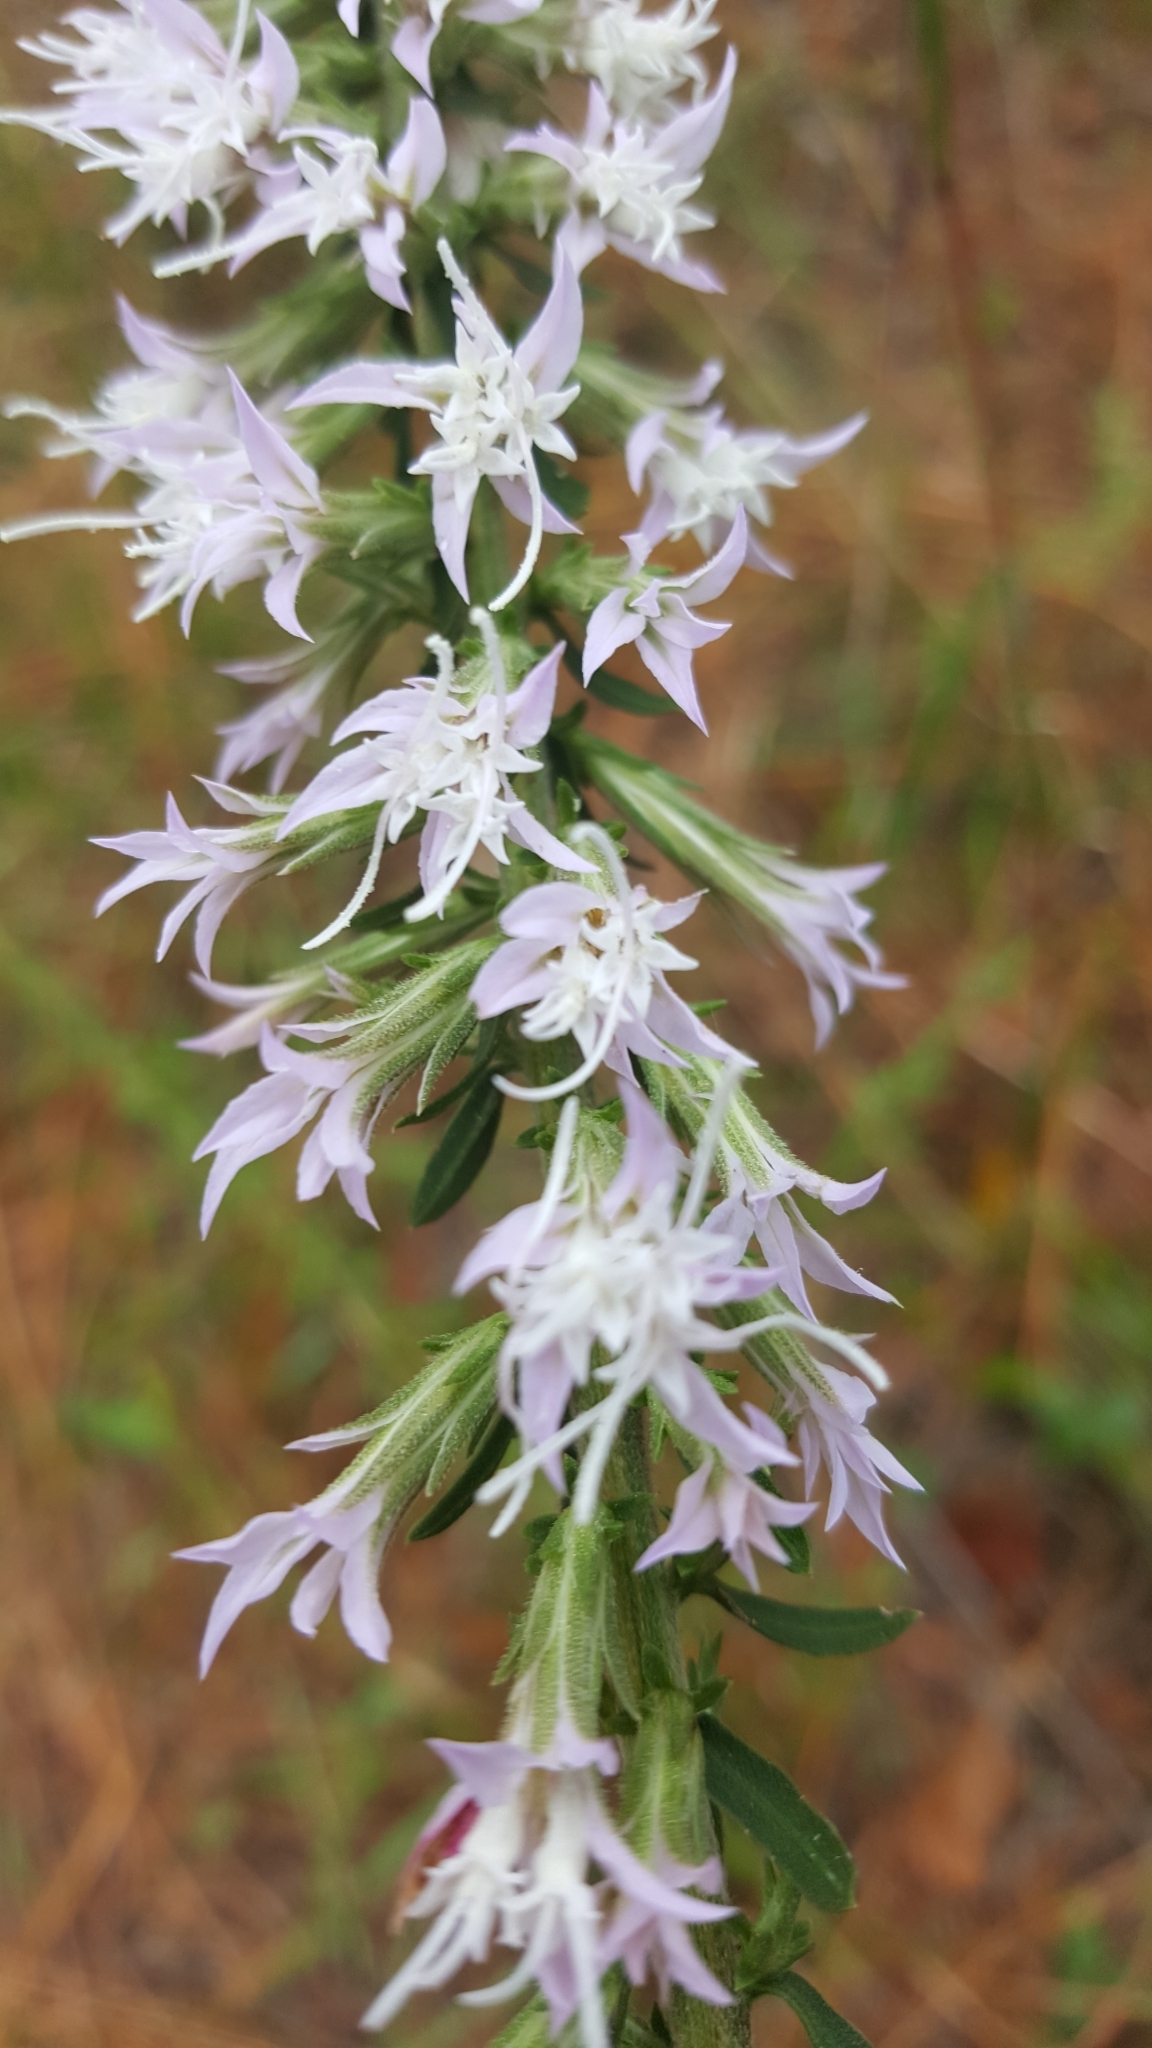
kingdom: Plantae
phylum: Tracheophyta
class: Magnoliopsida
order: Asterales
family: Asteraceae
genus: Liatris
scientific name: Liatris elegans
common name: Pinkscale gayfeather
